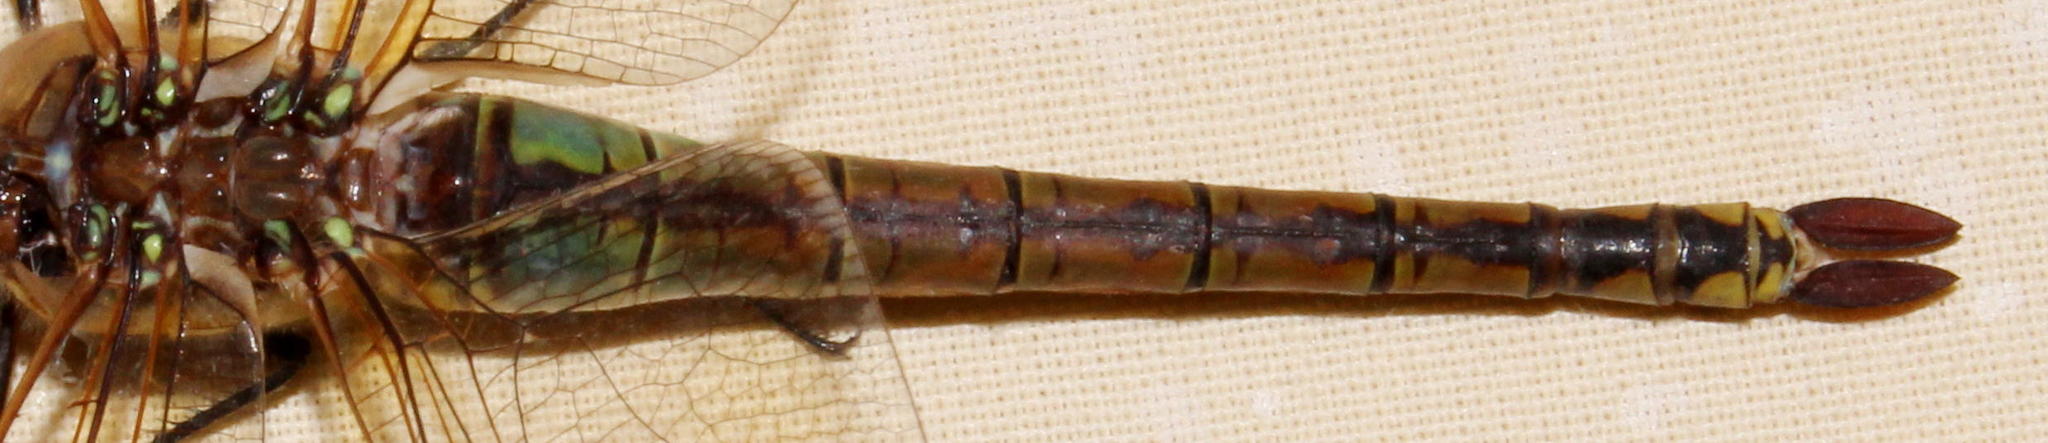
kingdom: Animalia
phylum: Arthropoda
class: Insecta
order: Odonata
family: Aeshnidae
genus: Anax
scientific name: Anax ephippiger
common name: Vagrant emperor
